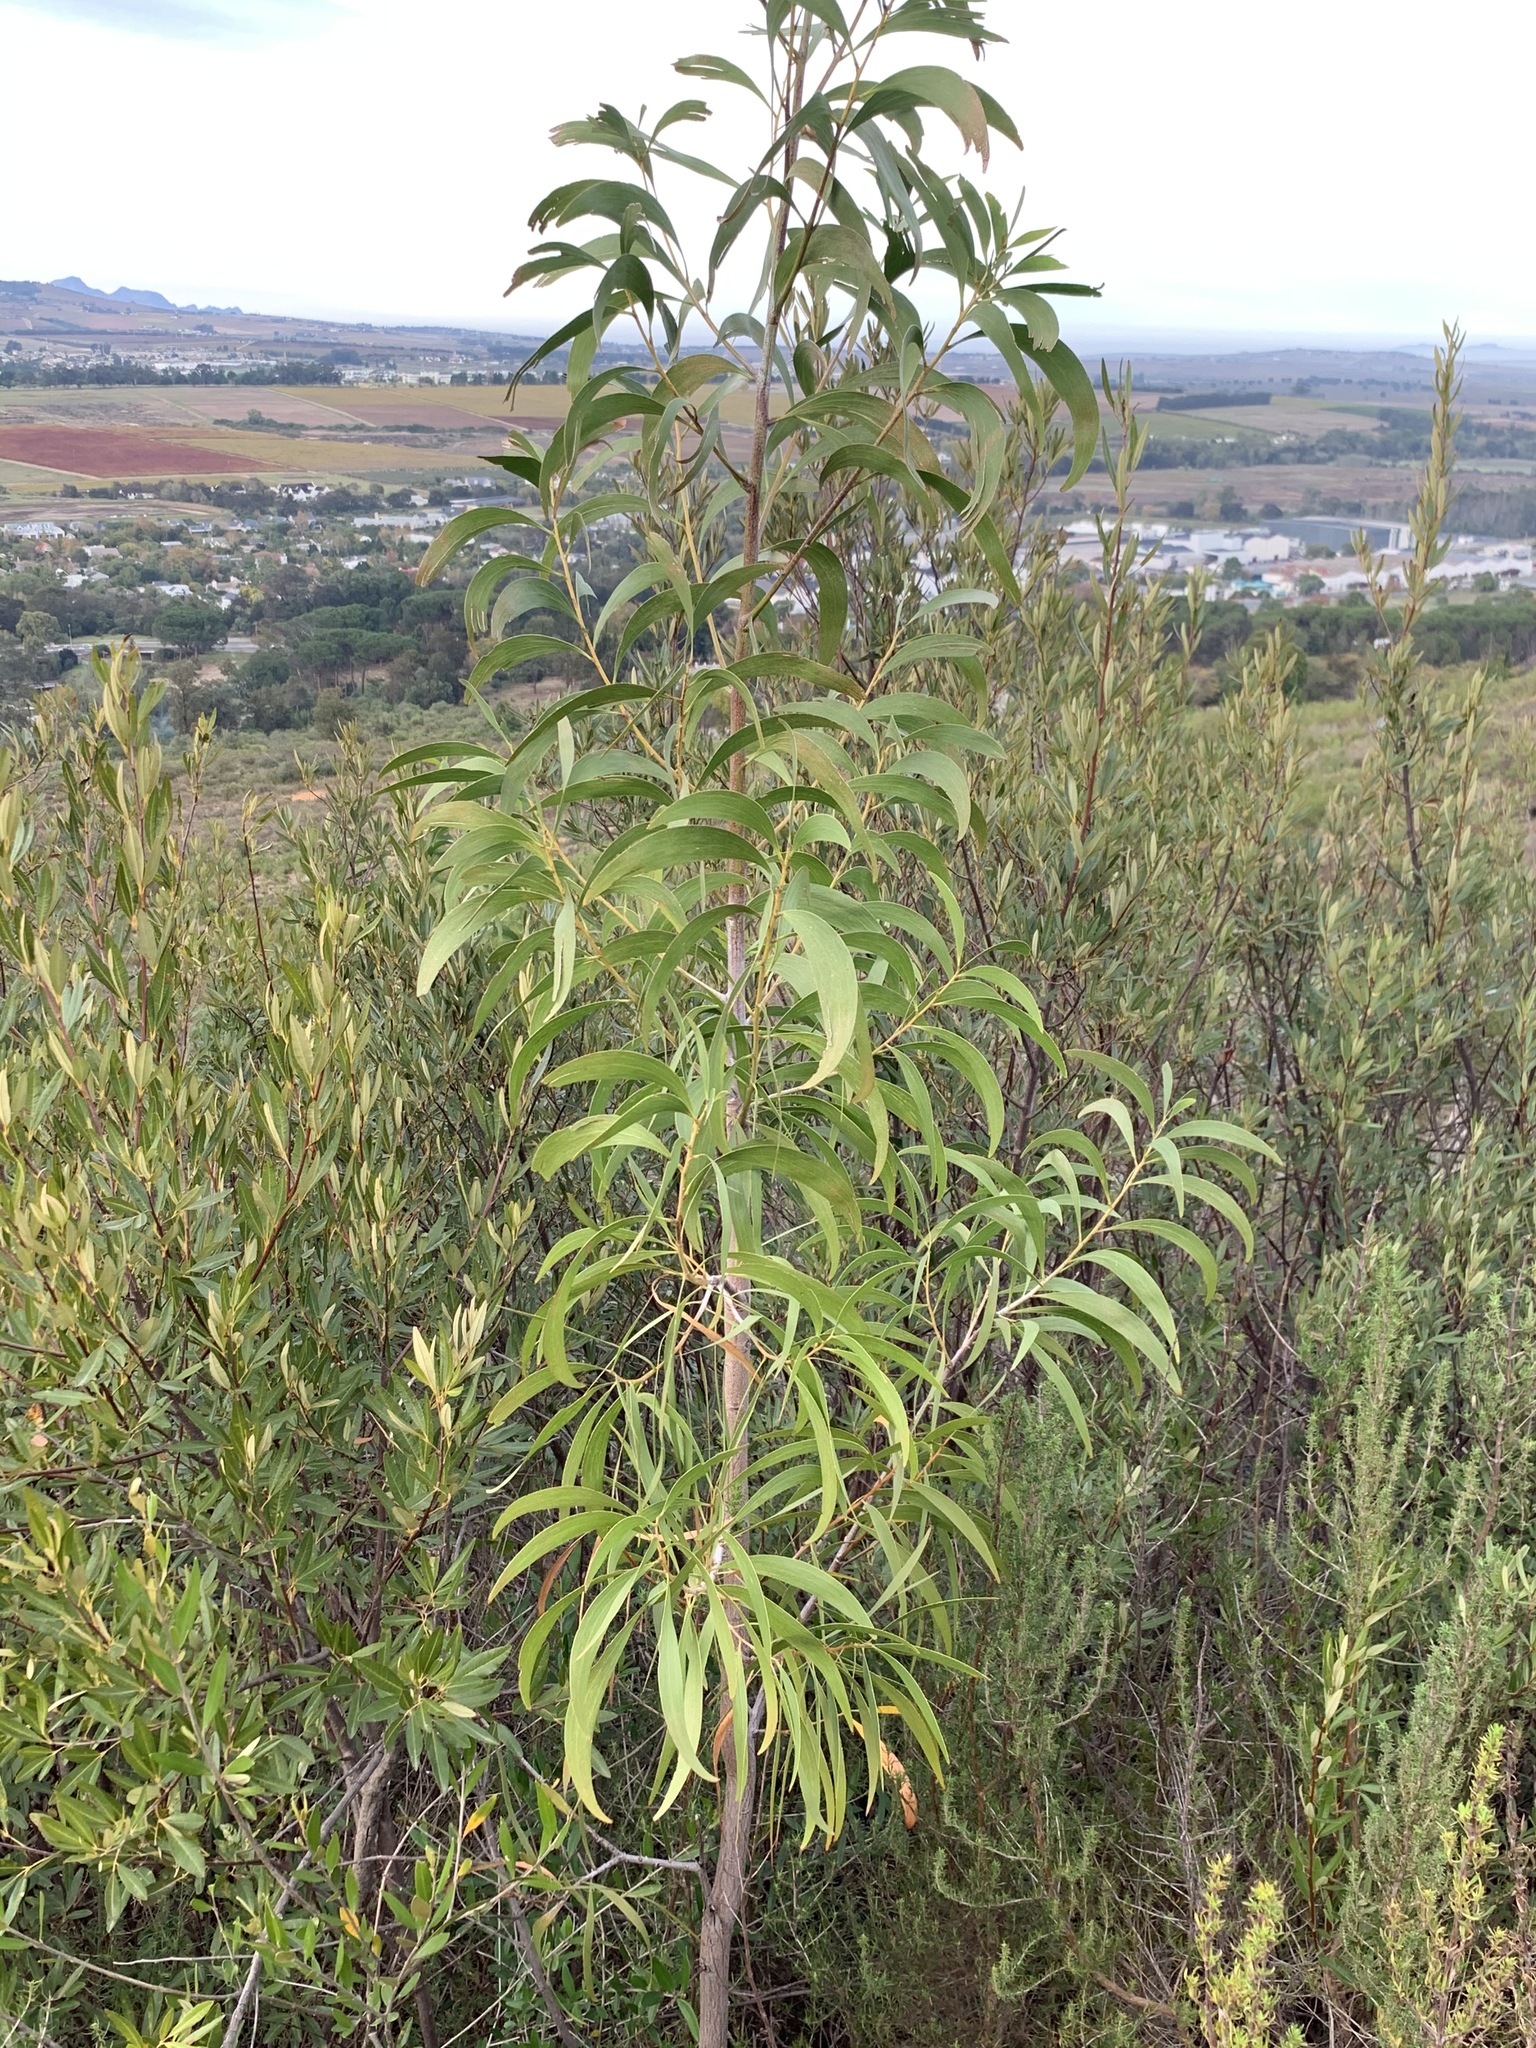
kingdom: Plantae
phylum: Tracheophyta
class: Magnoliopsida
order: Fabales
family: Fabaceae
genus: Acacia
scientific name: Acacia implexa
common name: Black wattle
